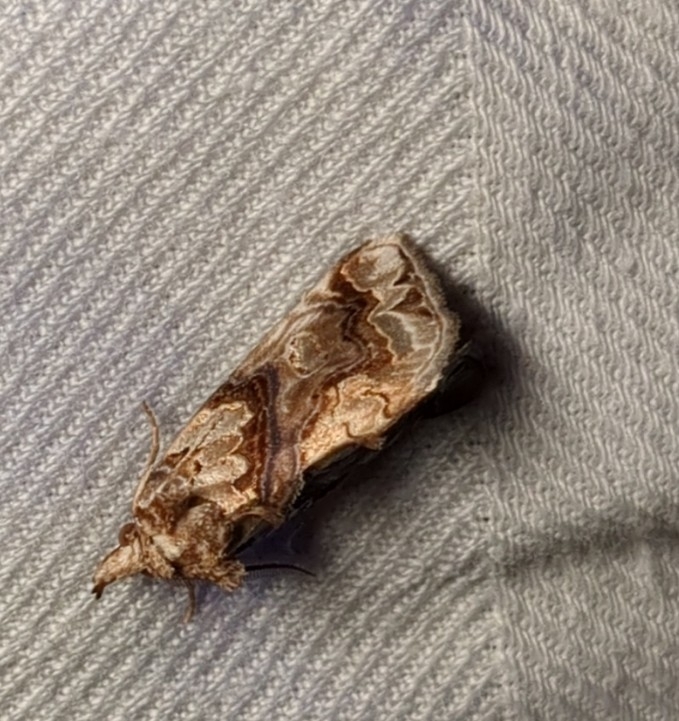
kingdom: Animalia
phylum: Arthropoda
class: Insecta
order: Lepidoptera
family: Erebidae
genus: Plusiodonta
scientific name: Plusiodonta compressipalpis
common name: Moonseed moth
